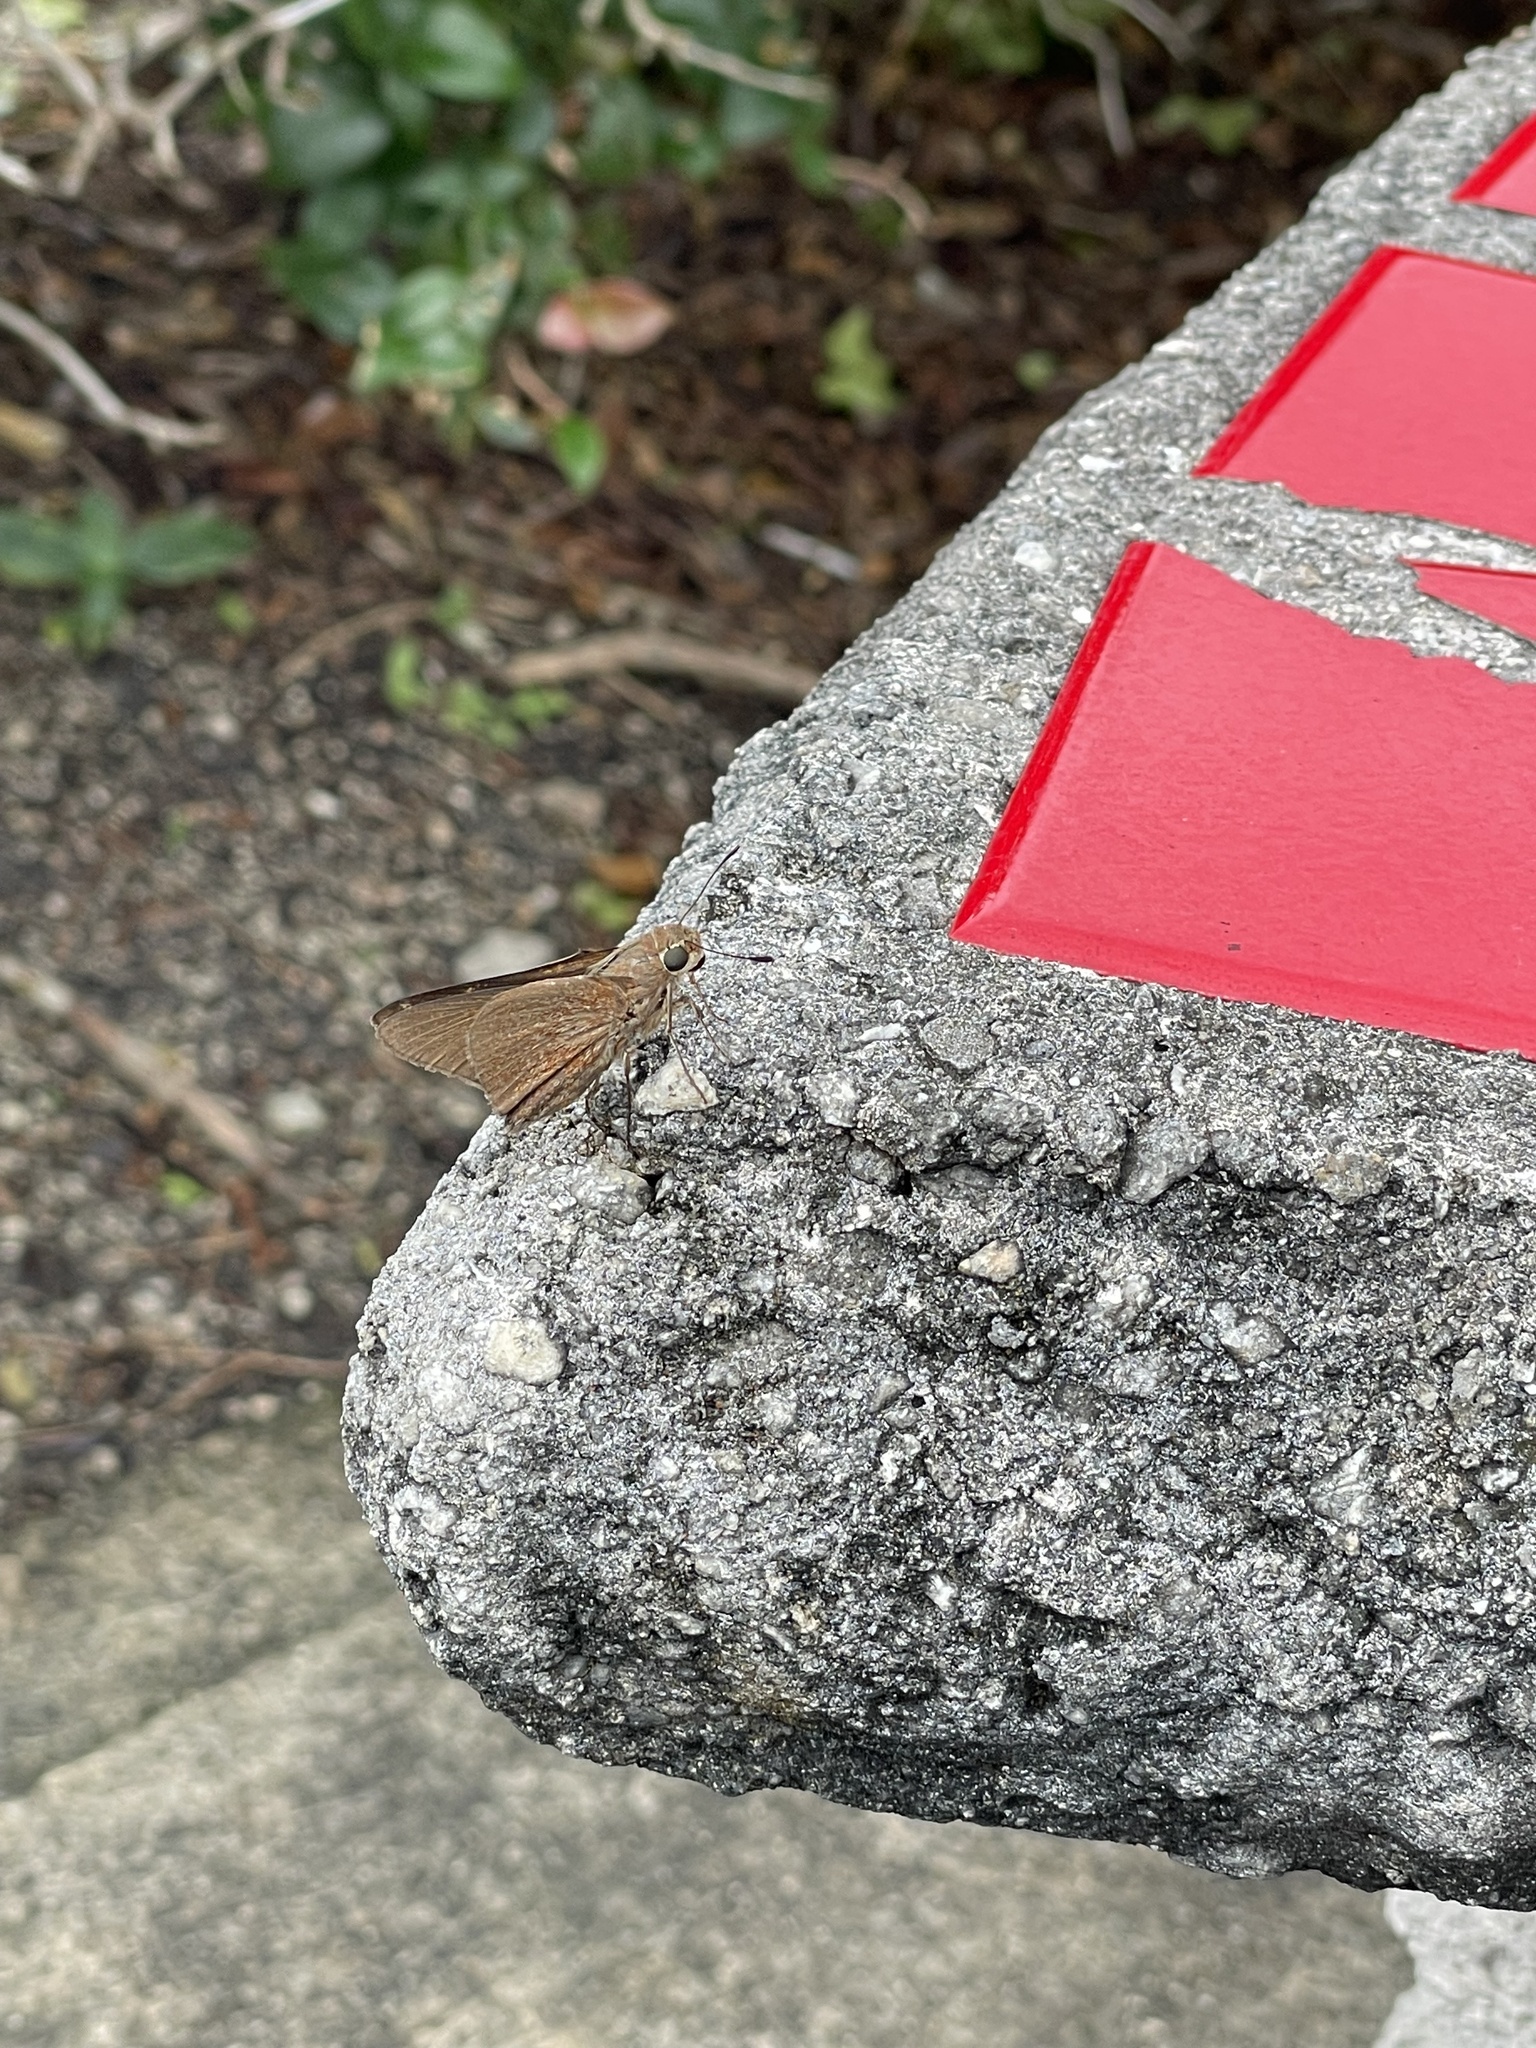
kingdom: Animalia
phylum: Arthropoda
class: Insecta
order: Lepidoptera
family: Hesperiidae
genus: Asbolis
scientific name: Asbolis capucinus
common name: Monk skipper
